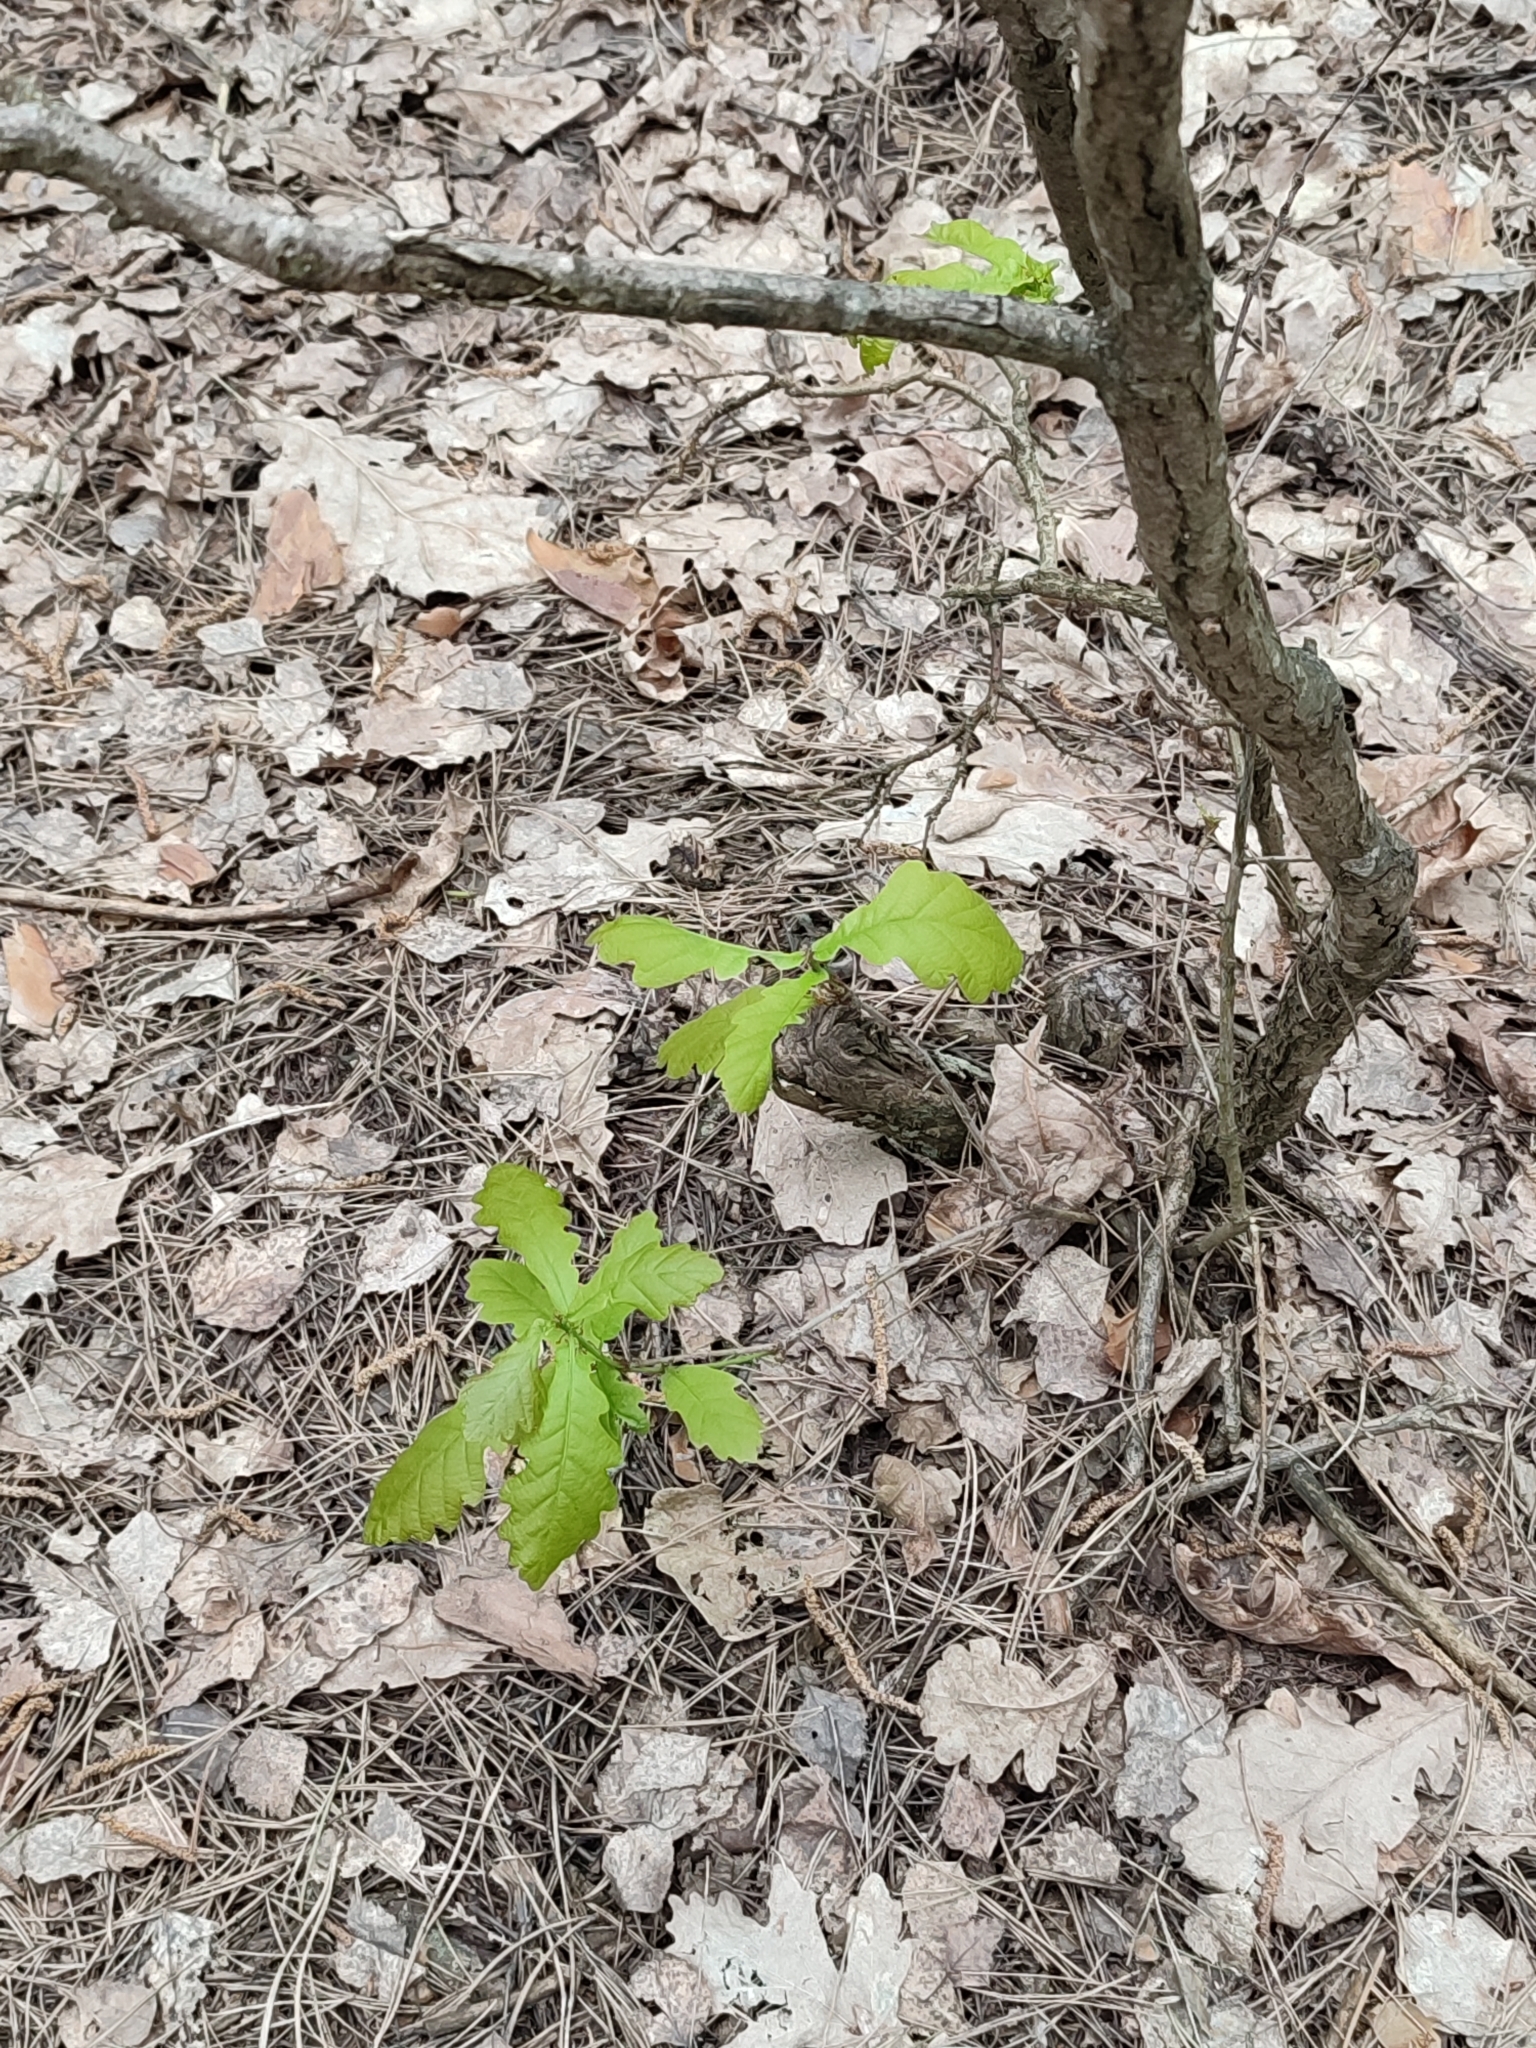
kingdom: Plantae
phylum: Tracheophyta
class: Magnoliopsida
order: Fagales
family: Fagaceae
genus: Quercus
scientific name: Quercus robur
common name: Pedunculate oak
